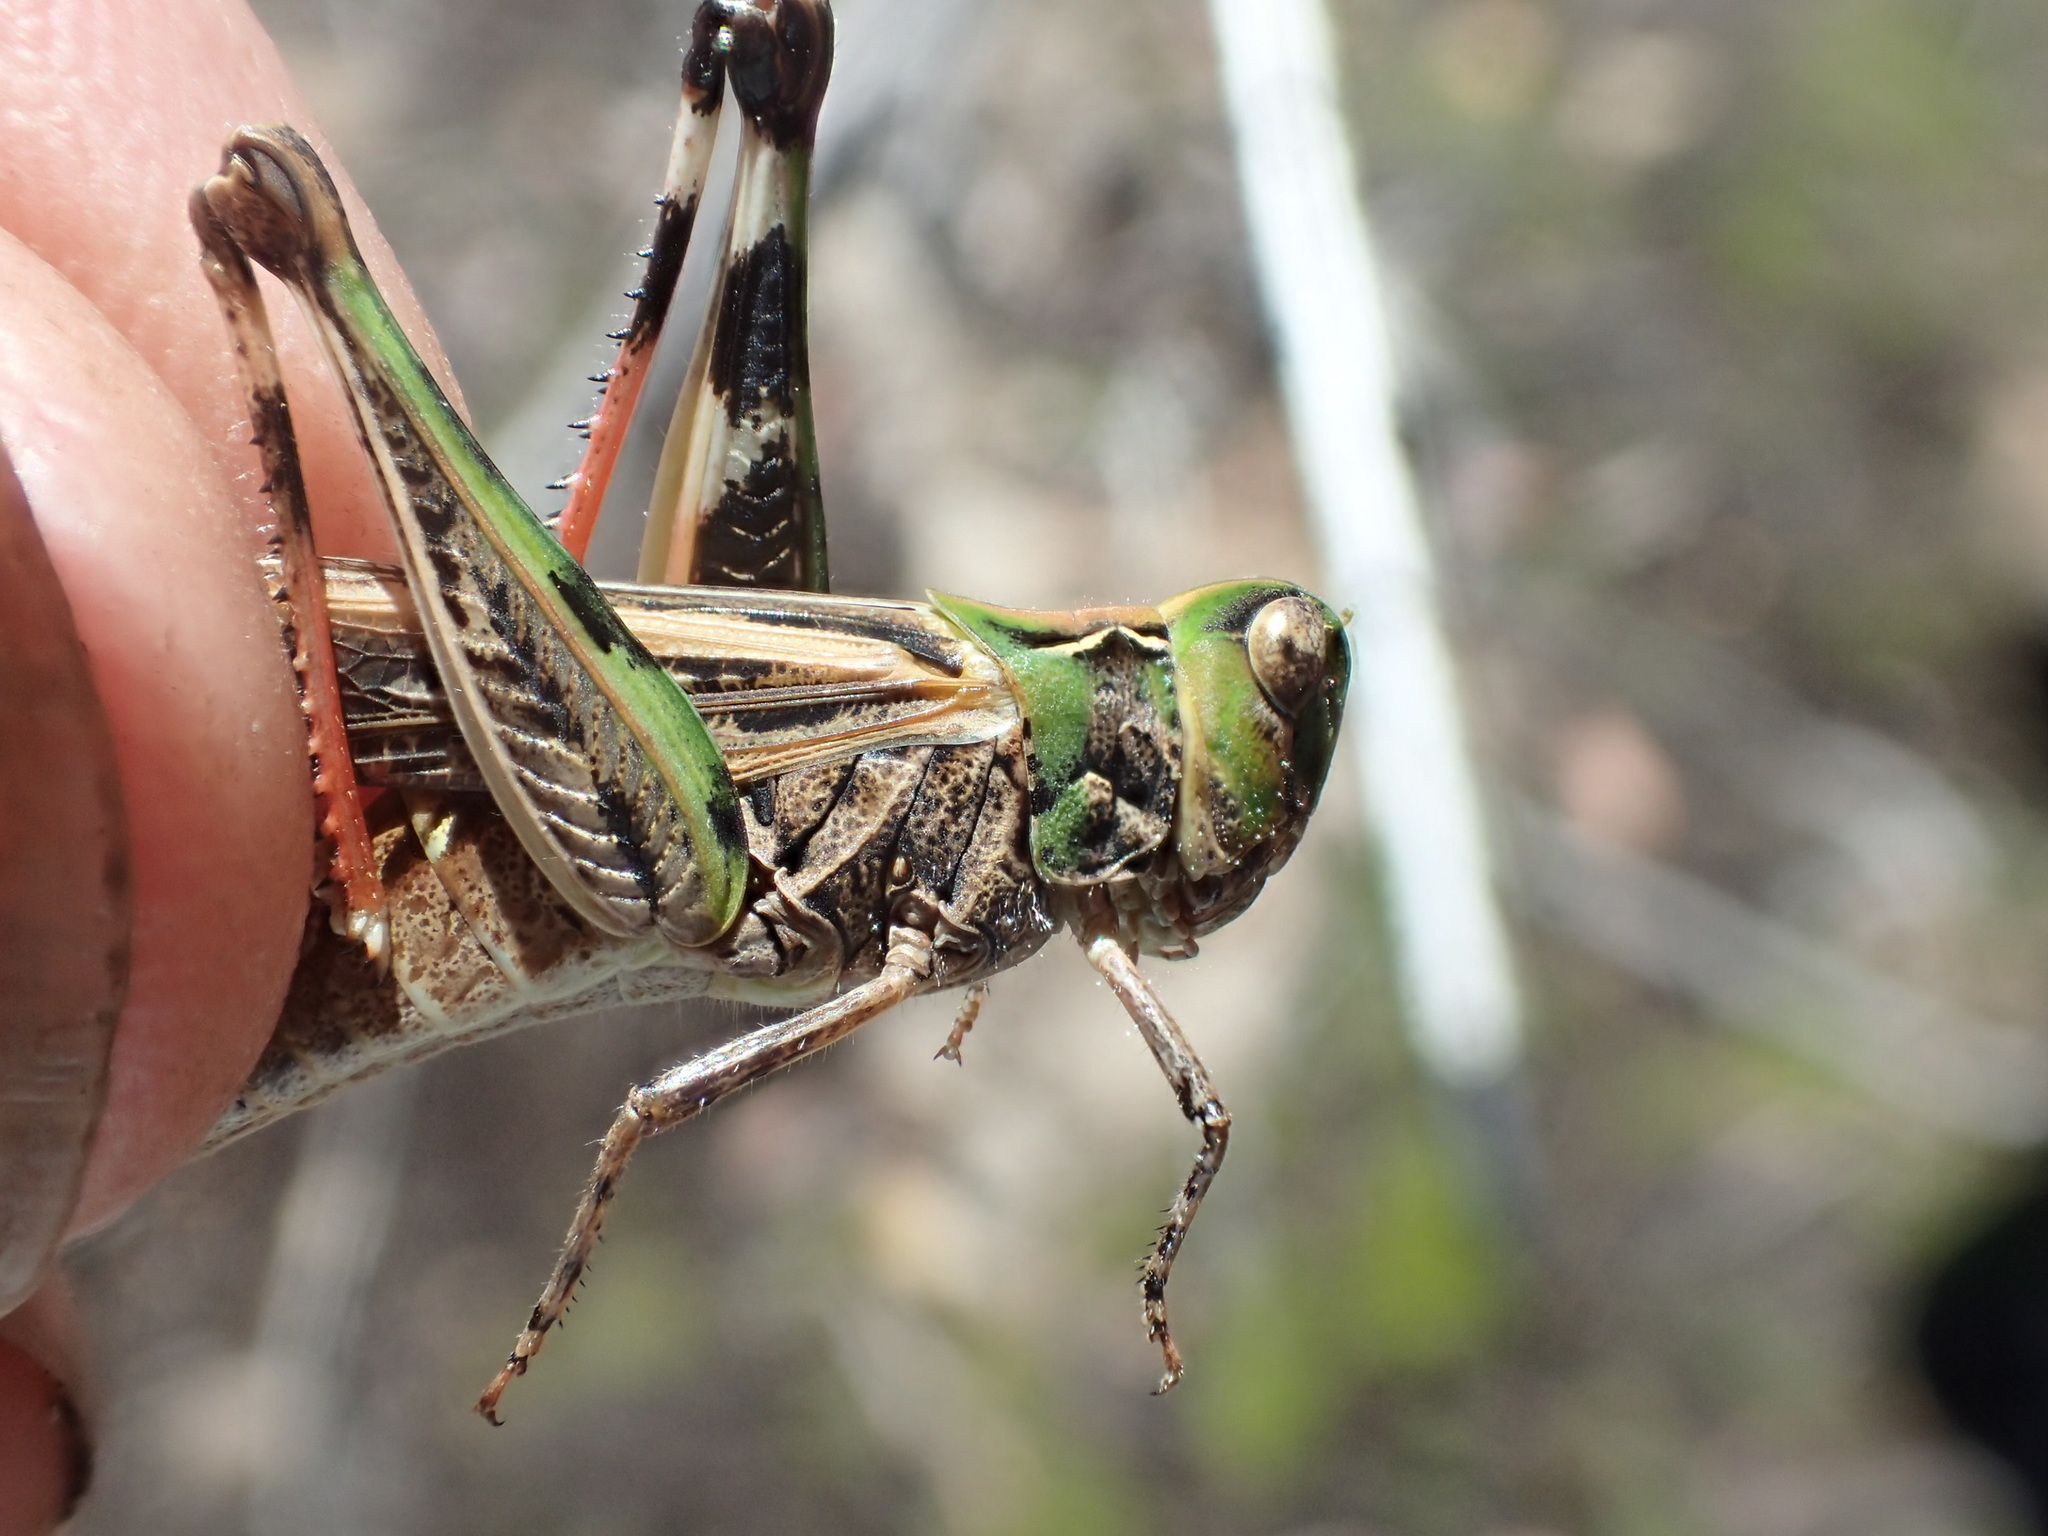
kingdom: Animalia
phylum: Arthropoda
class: Insecta
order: Orthoptera
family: Acrididae
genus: Austroicetes
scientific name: Austroicetes vulgaris
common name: Southeastern austroicetes
